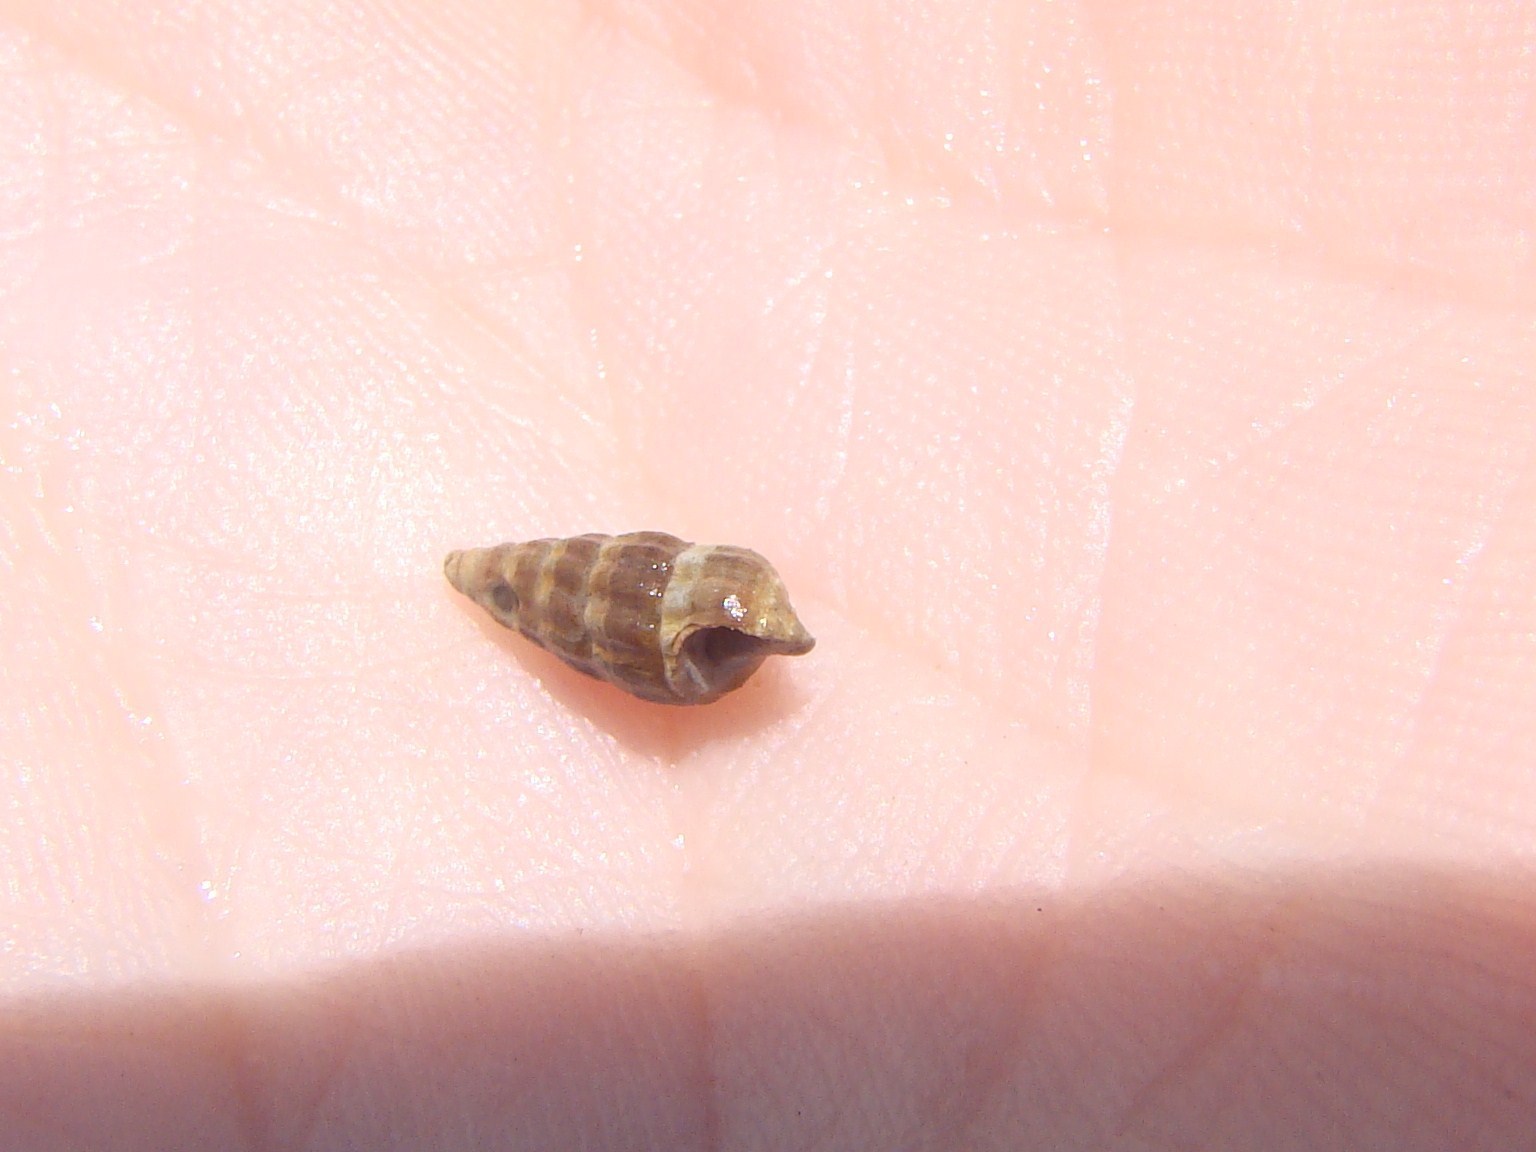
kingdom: Animalia
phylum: Mollusca
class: Gastropoda
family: Batillariidae
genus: Zeacumantus
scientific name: Zeacumantus subcarinatus
